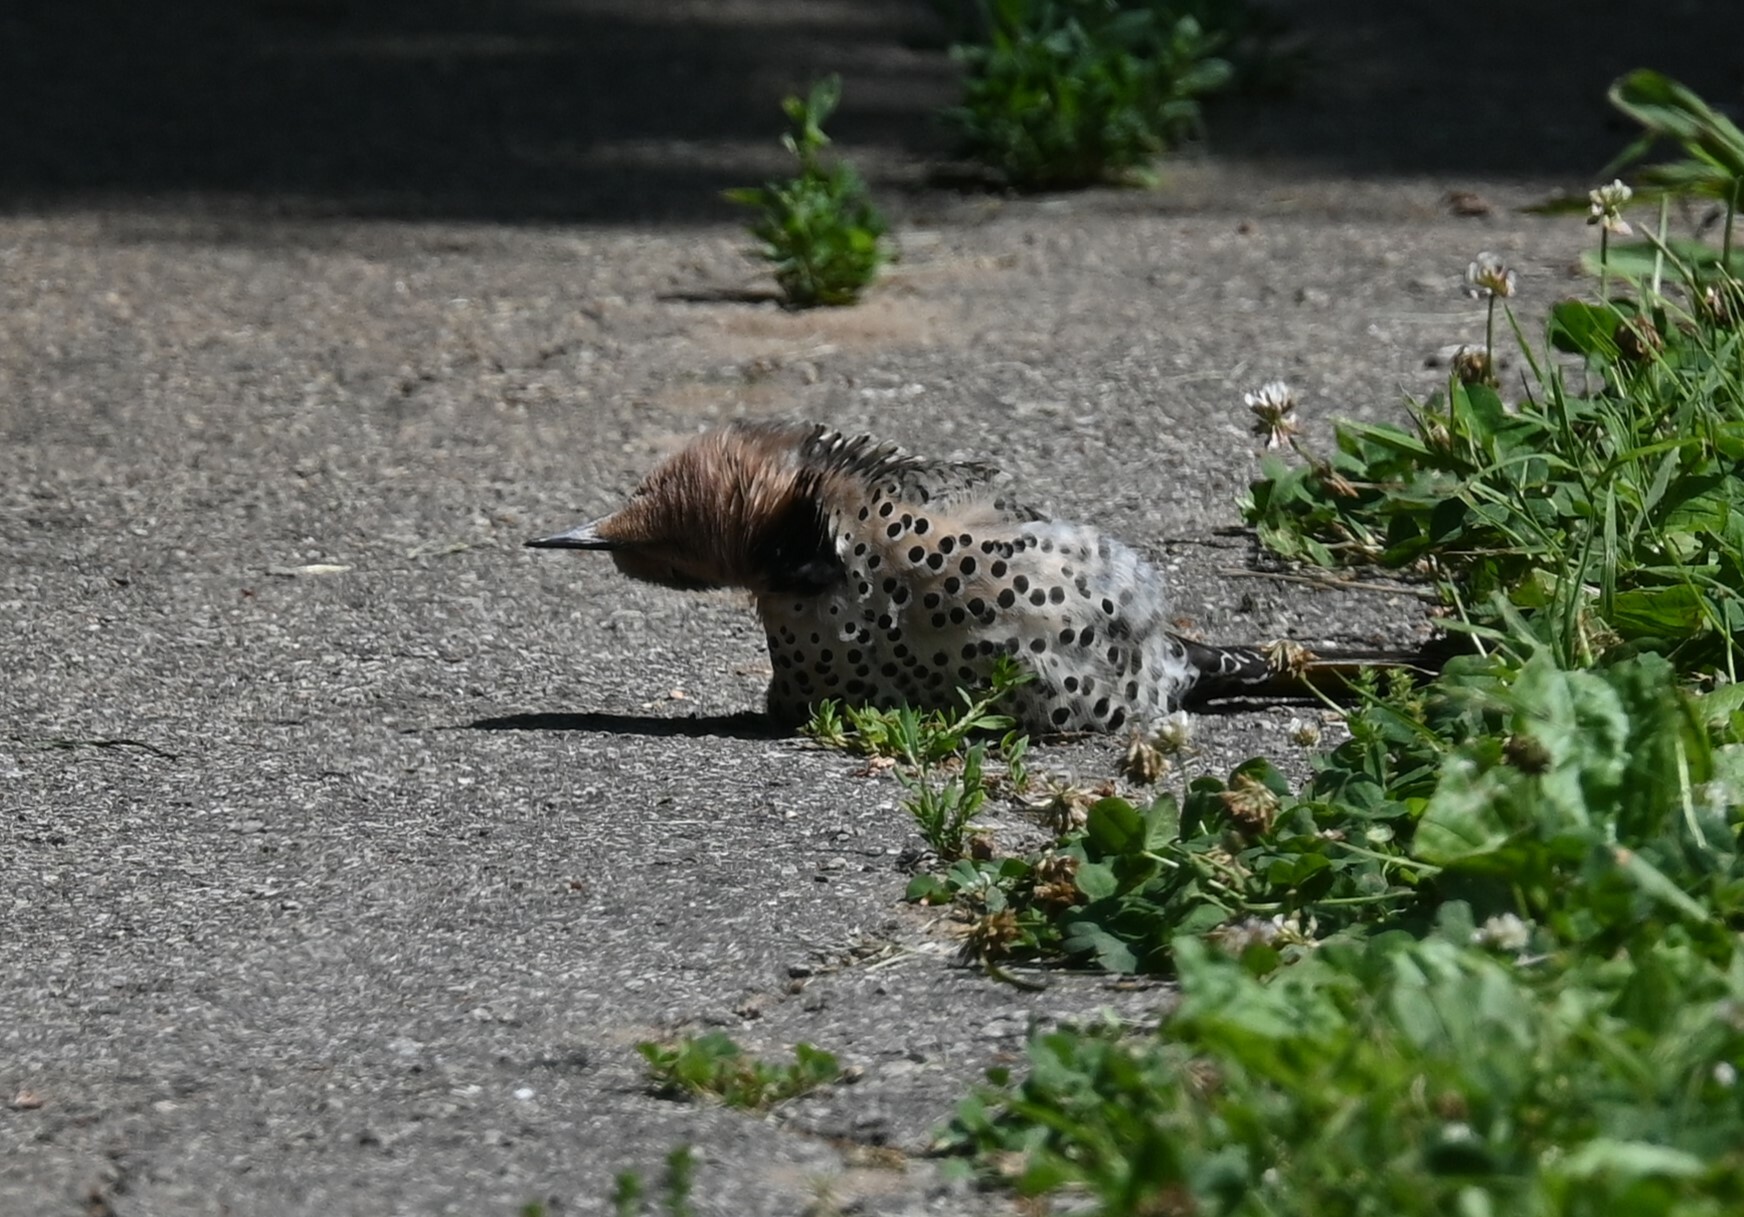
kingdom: Animalia
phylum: Chordata
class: Aves
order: Piciformes
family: Picidae
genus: Colaptes
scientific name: Colaptes auratus
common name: Northern flicker
